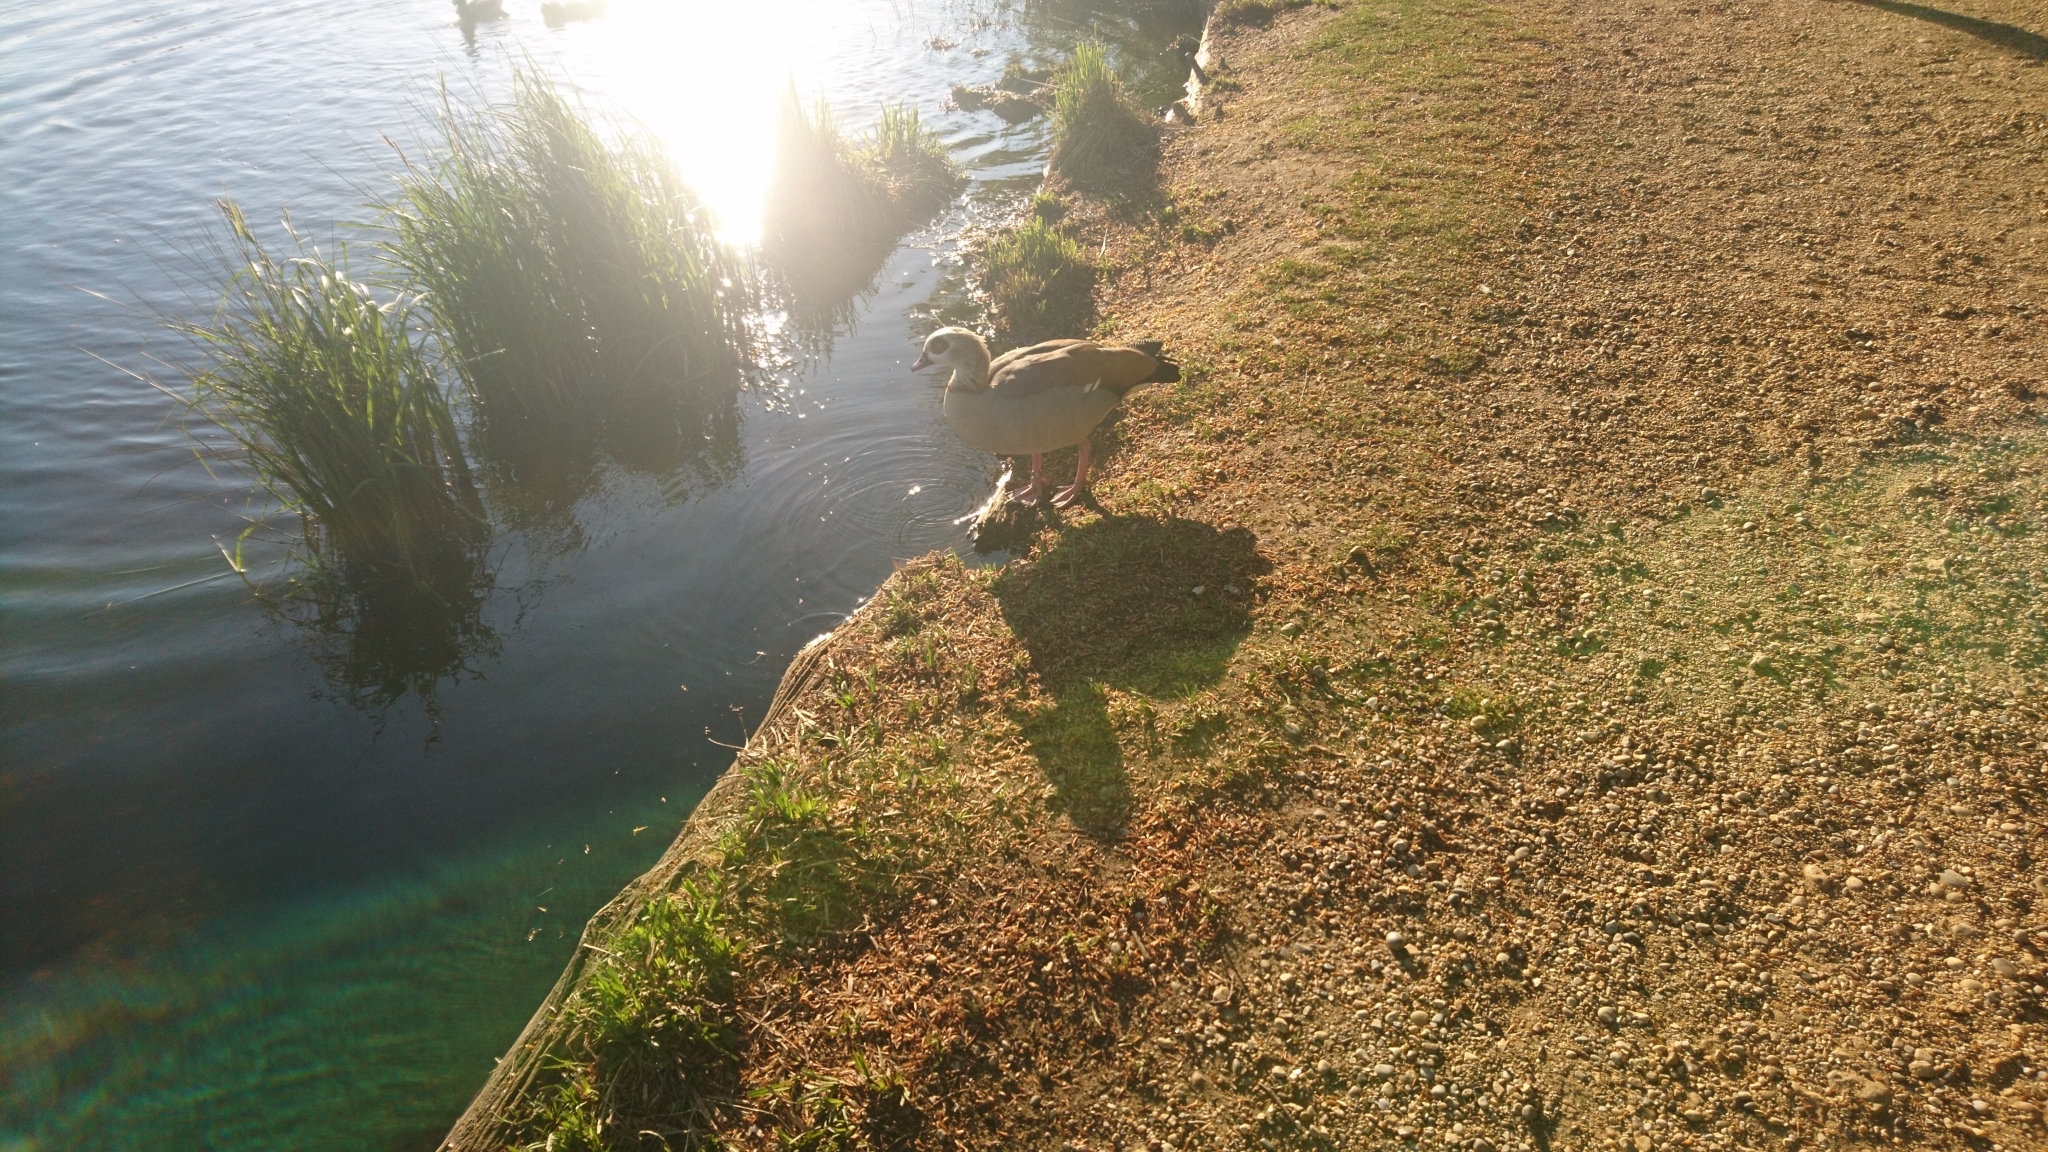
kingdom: Animalia
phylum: Chordata
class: Aves
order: Anseriformes
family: Anatidae
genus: Alopochen
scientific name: Alopochen aegyptiaca
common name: Egyptian goose
